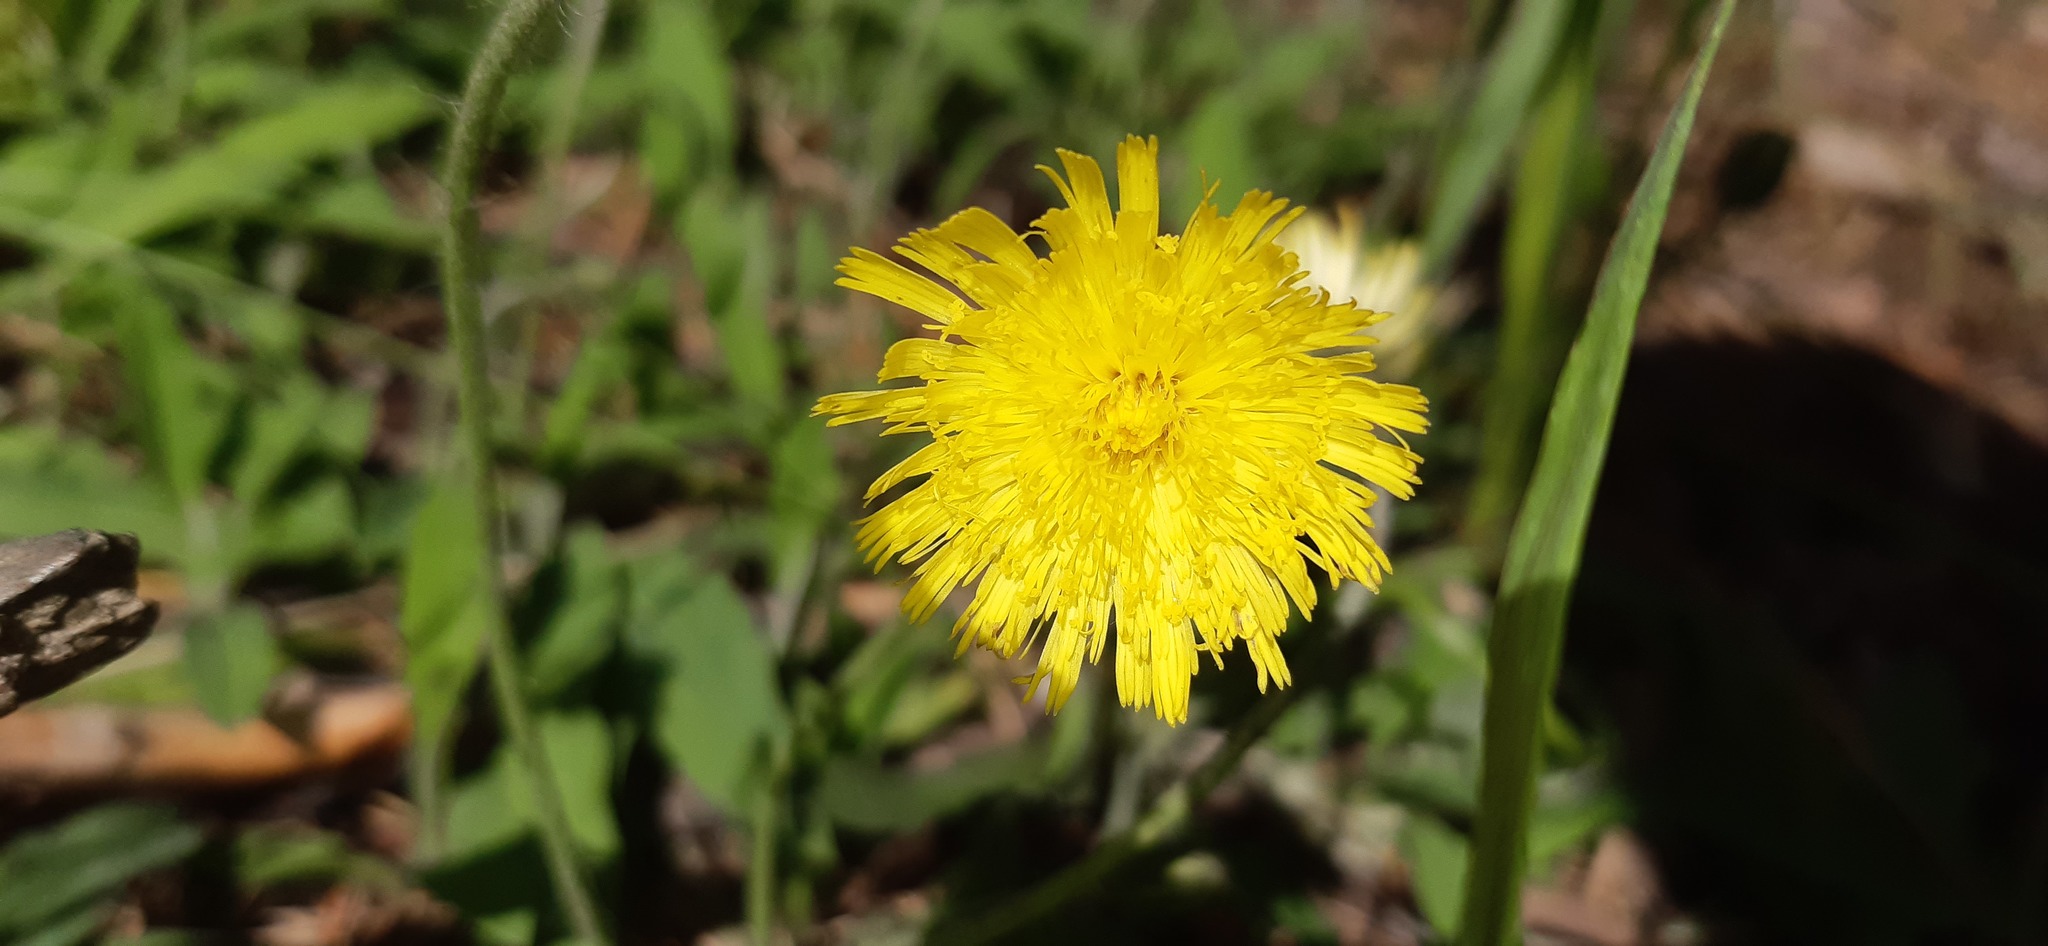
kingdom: Plantae
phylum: Tracheophyta
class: Magnoliopsida
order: Asterales
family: Asteraceae
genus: Pilosella
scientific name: Pilosella officinarum
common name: Mouse-ear hawkweed
